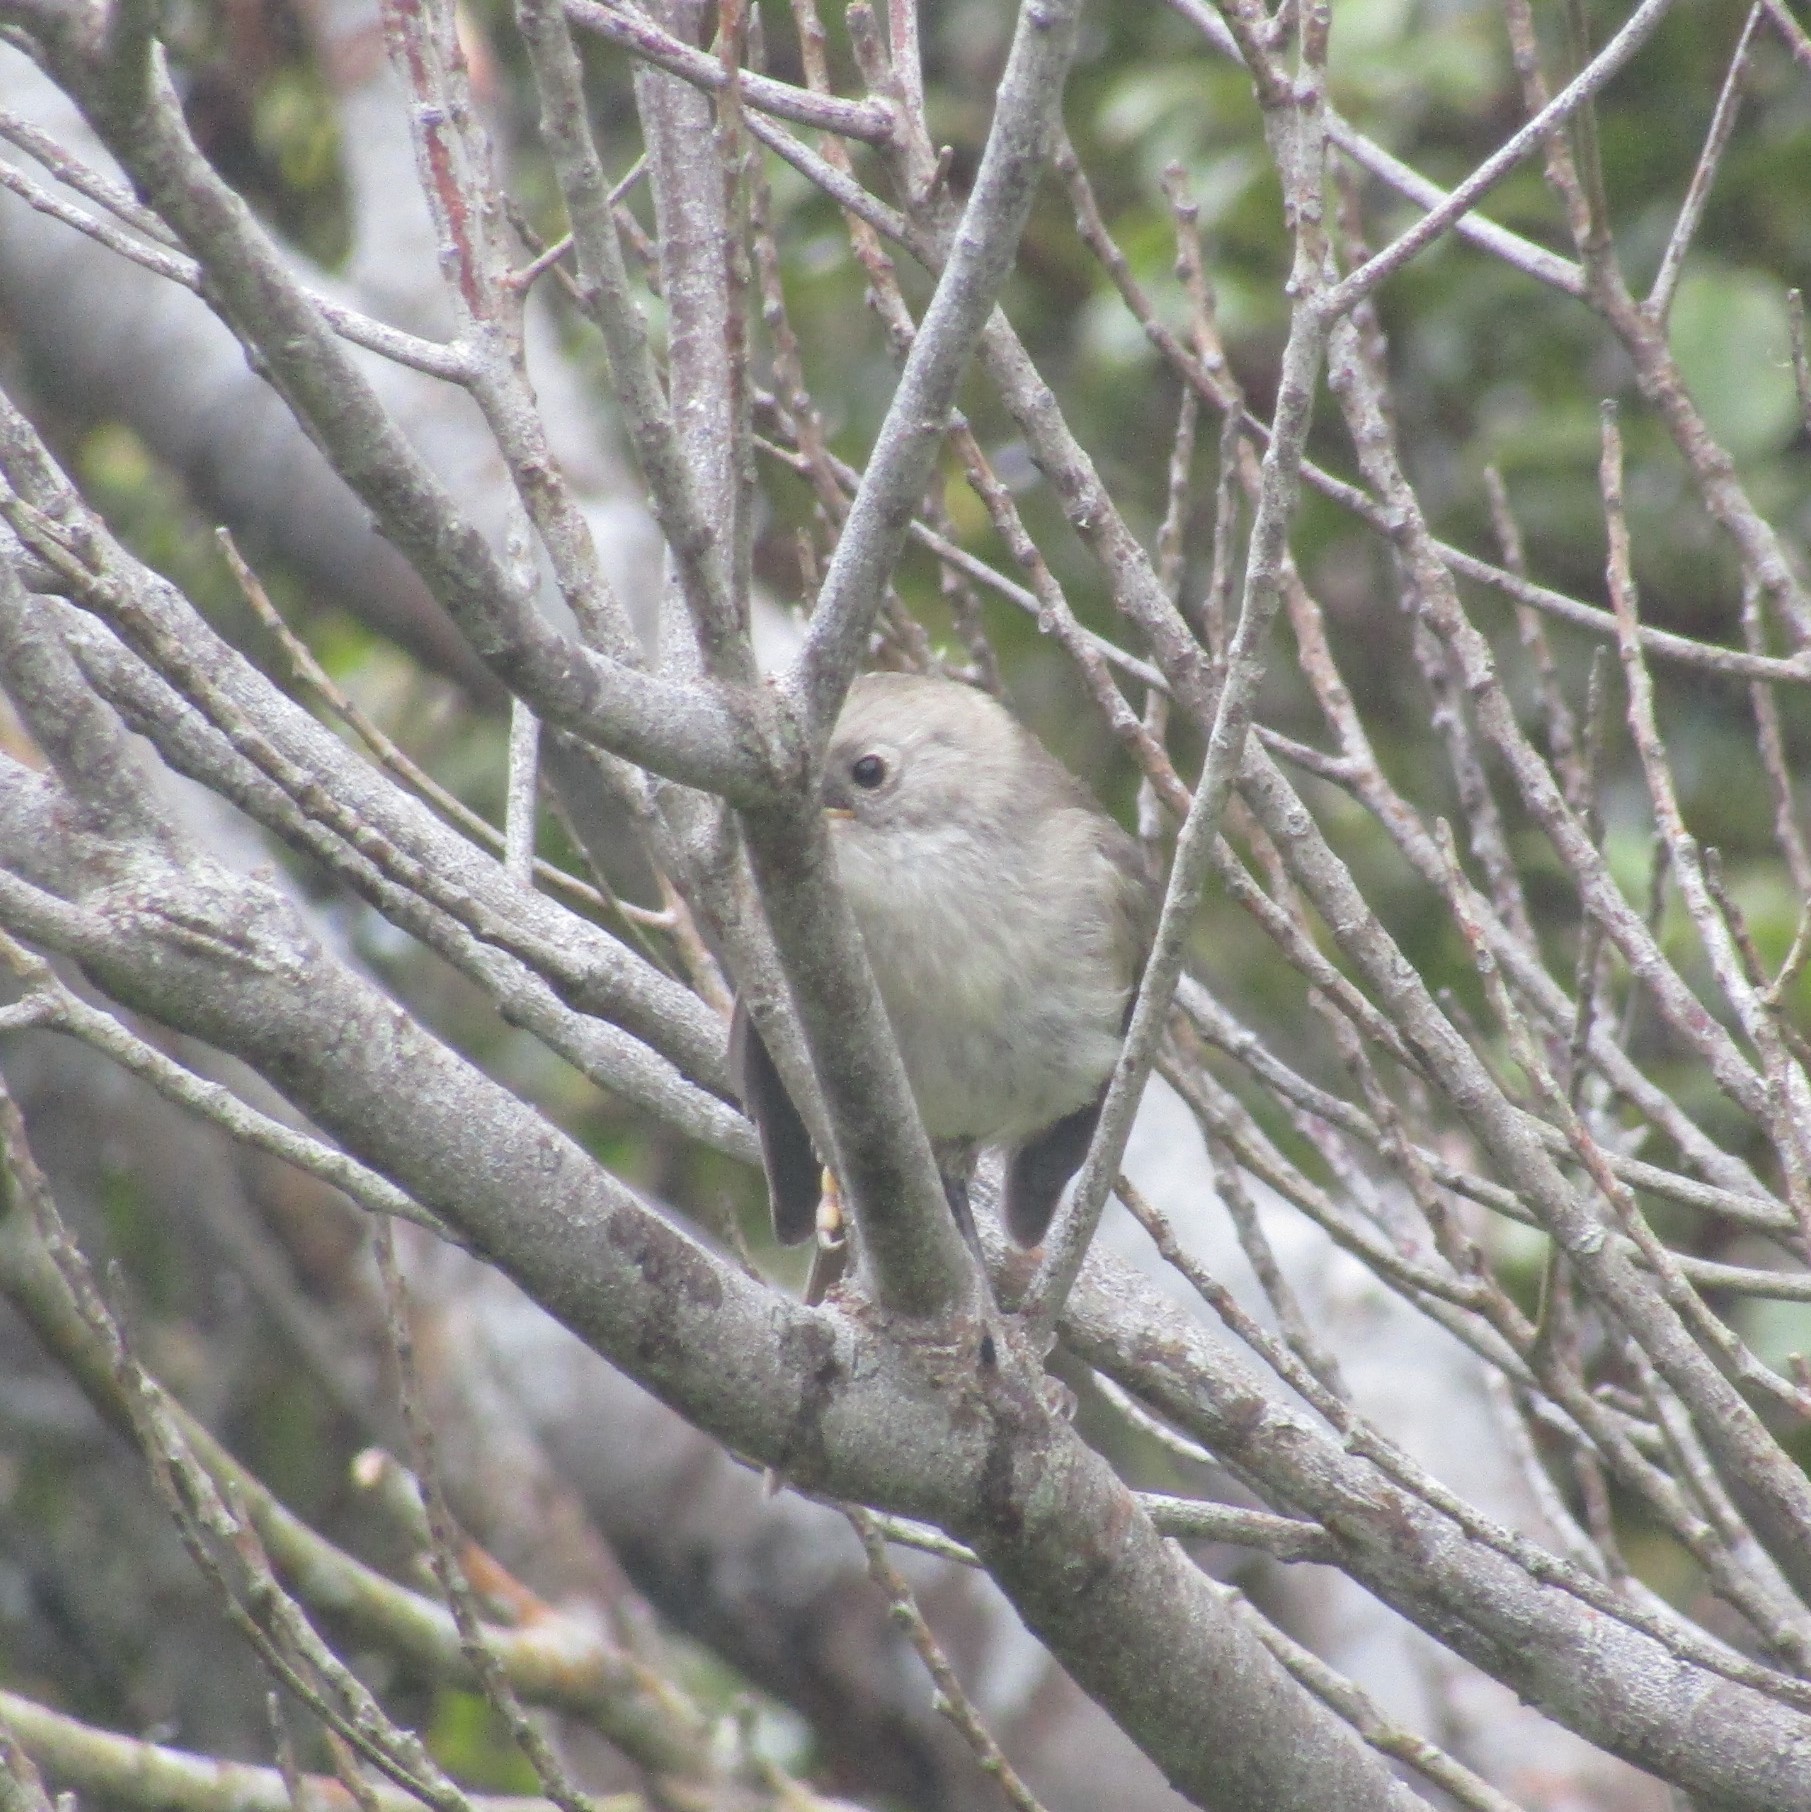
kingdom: Animalia
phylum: Chordata
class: Aves
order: Passeriformes
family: Acanthizidae
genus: Mohoua
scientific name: Mohoua albicilla
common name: Whitehead
